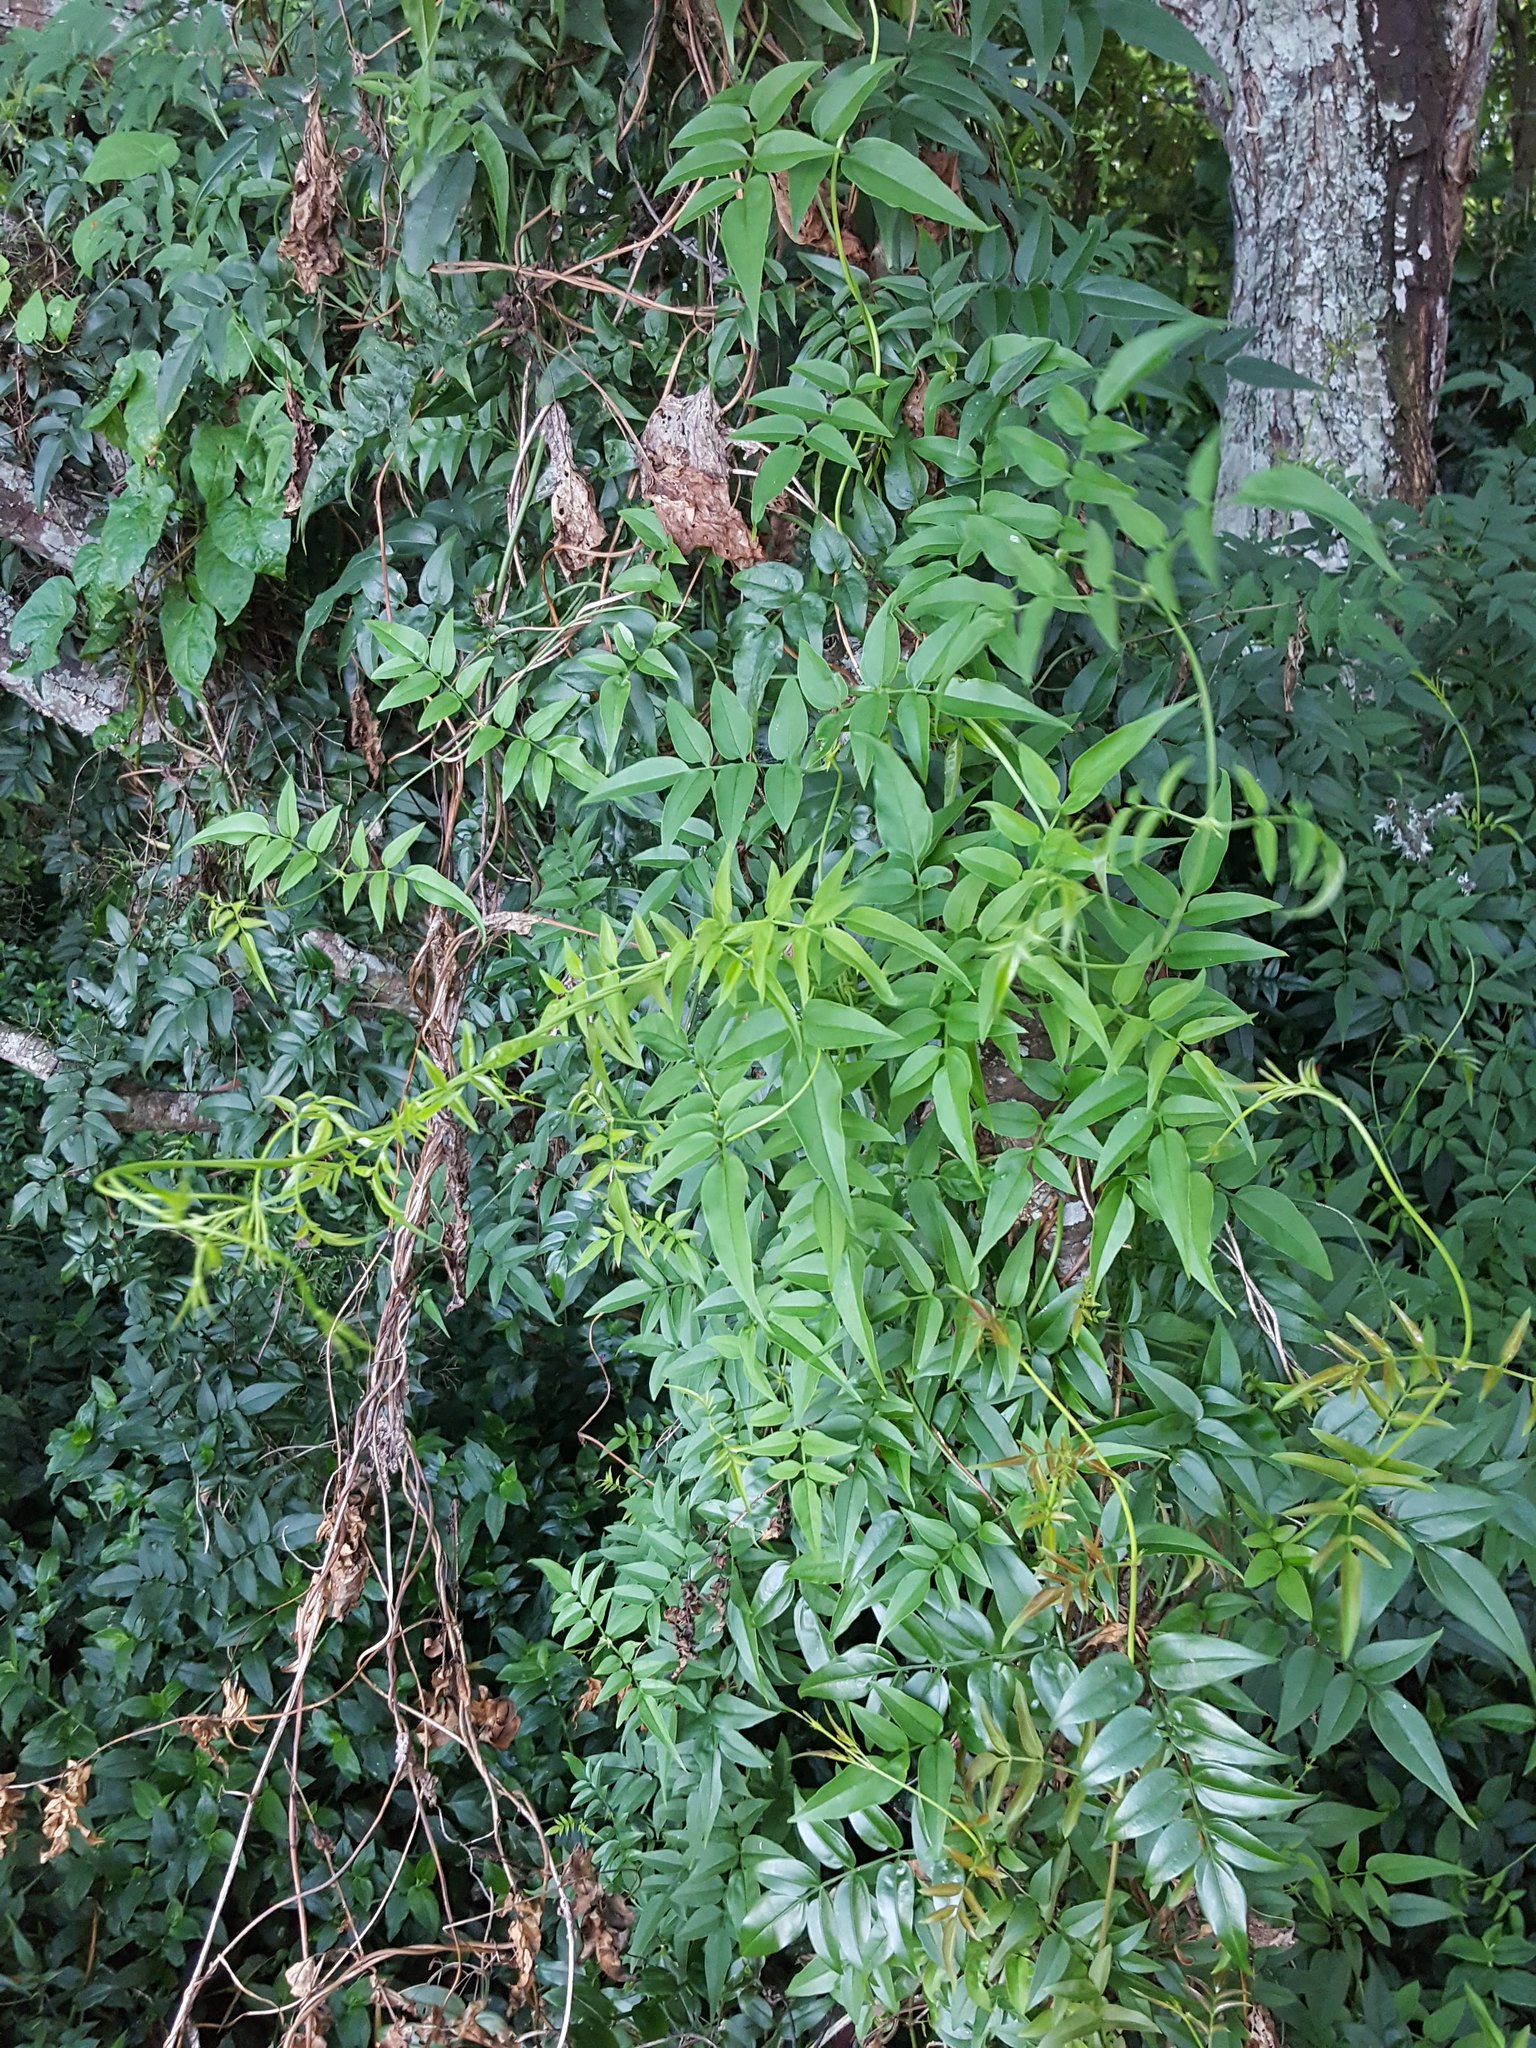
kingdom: Plantae
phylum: Tracheophyta
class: Magnoliopsida
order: Lamiales
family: Oleaceae
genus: Jasminum
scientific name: Jasminum polyanthum
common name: Pink jasmine
